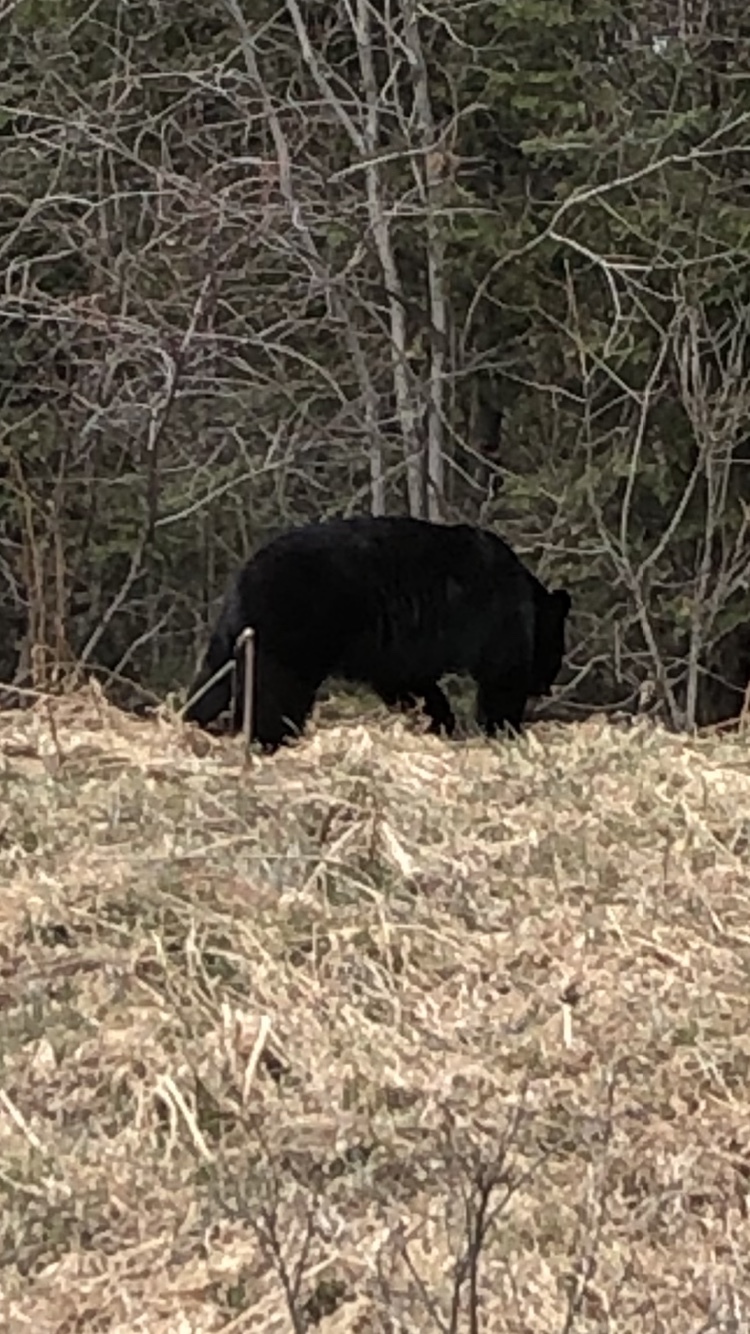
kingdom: Animalia
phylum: Chordata
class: Mammalia
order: Carnivora
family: Ursidae
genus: Ursus
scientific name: Ursus americanus
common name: American black bear
